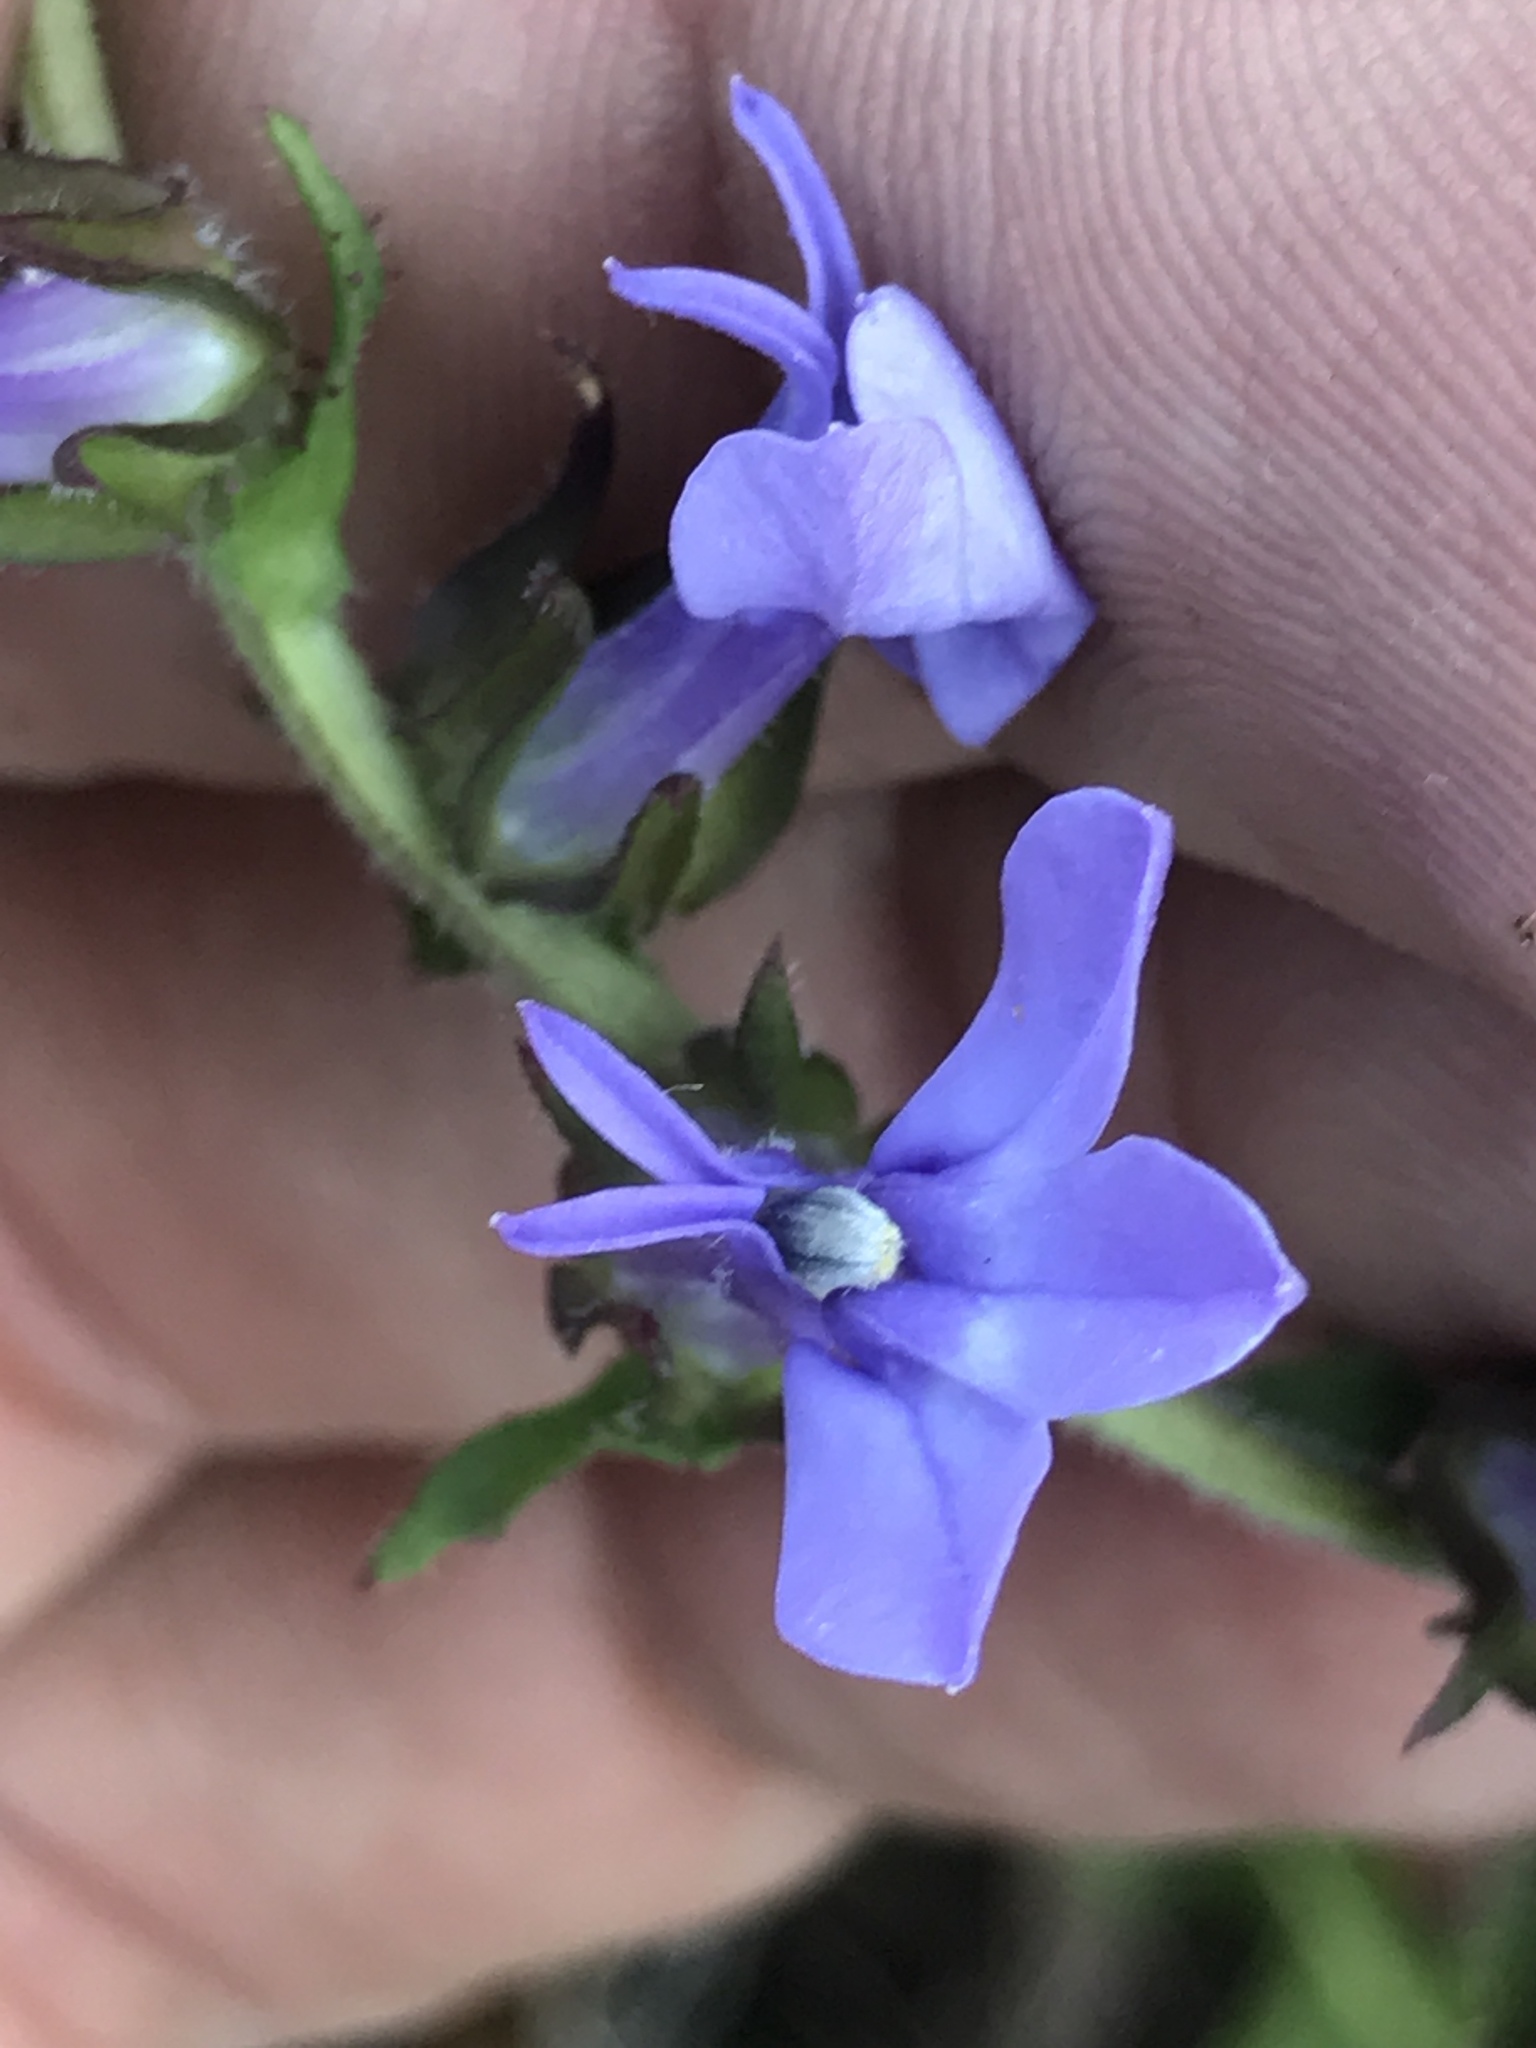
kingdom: Plantae
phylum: Tracheophyta
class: Magnoliopsida
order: Asterales
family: Campanulaceae
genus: Lobelia
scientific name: Lobelia puberula
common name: Purple dewdrop
